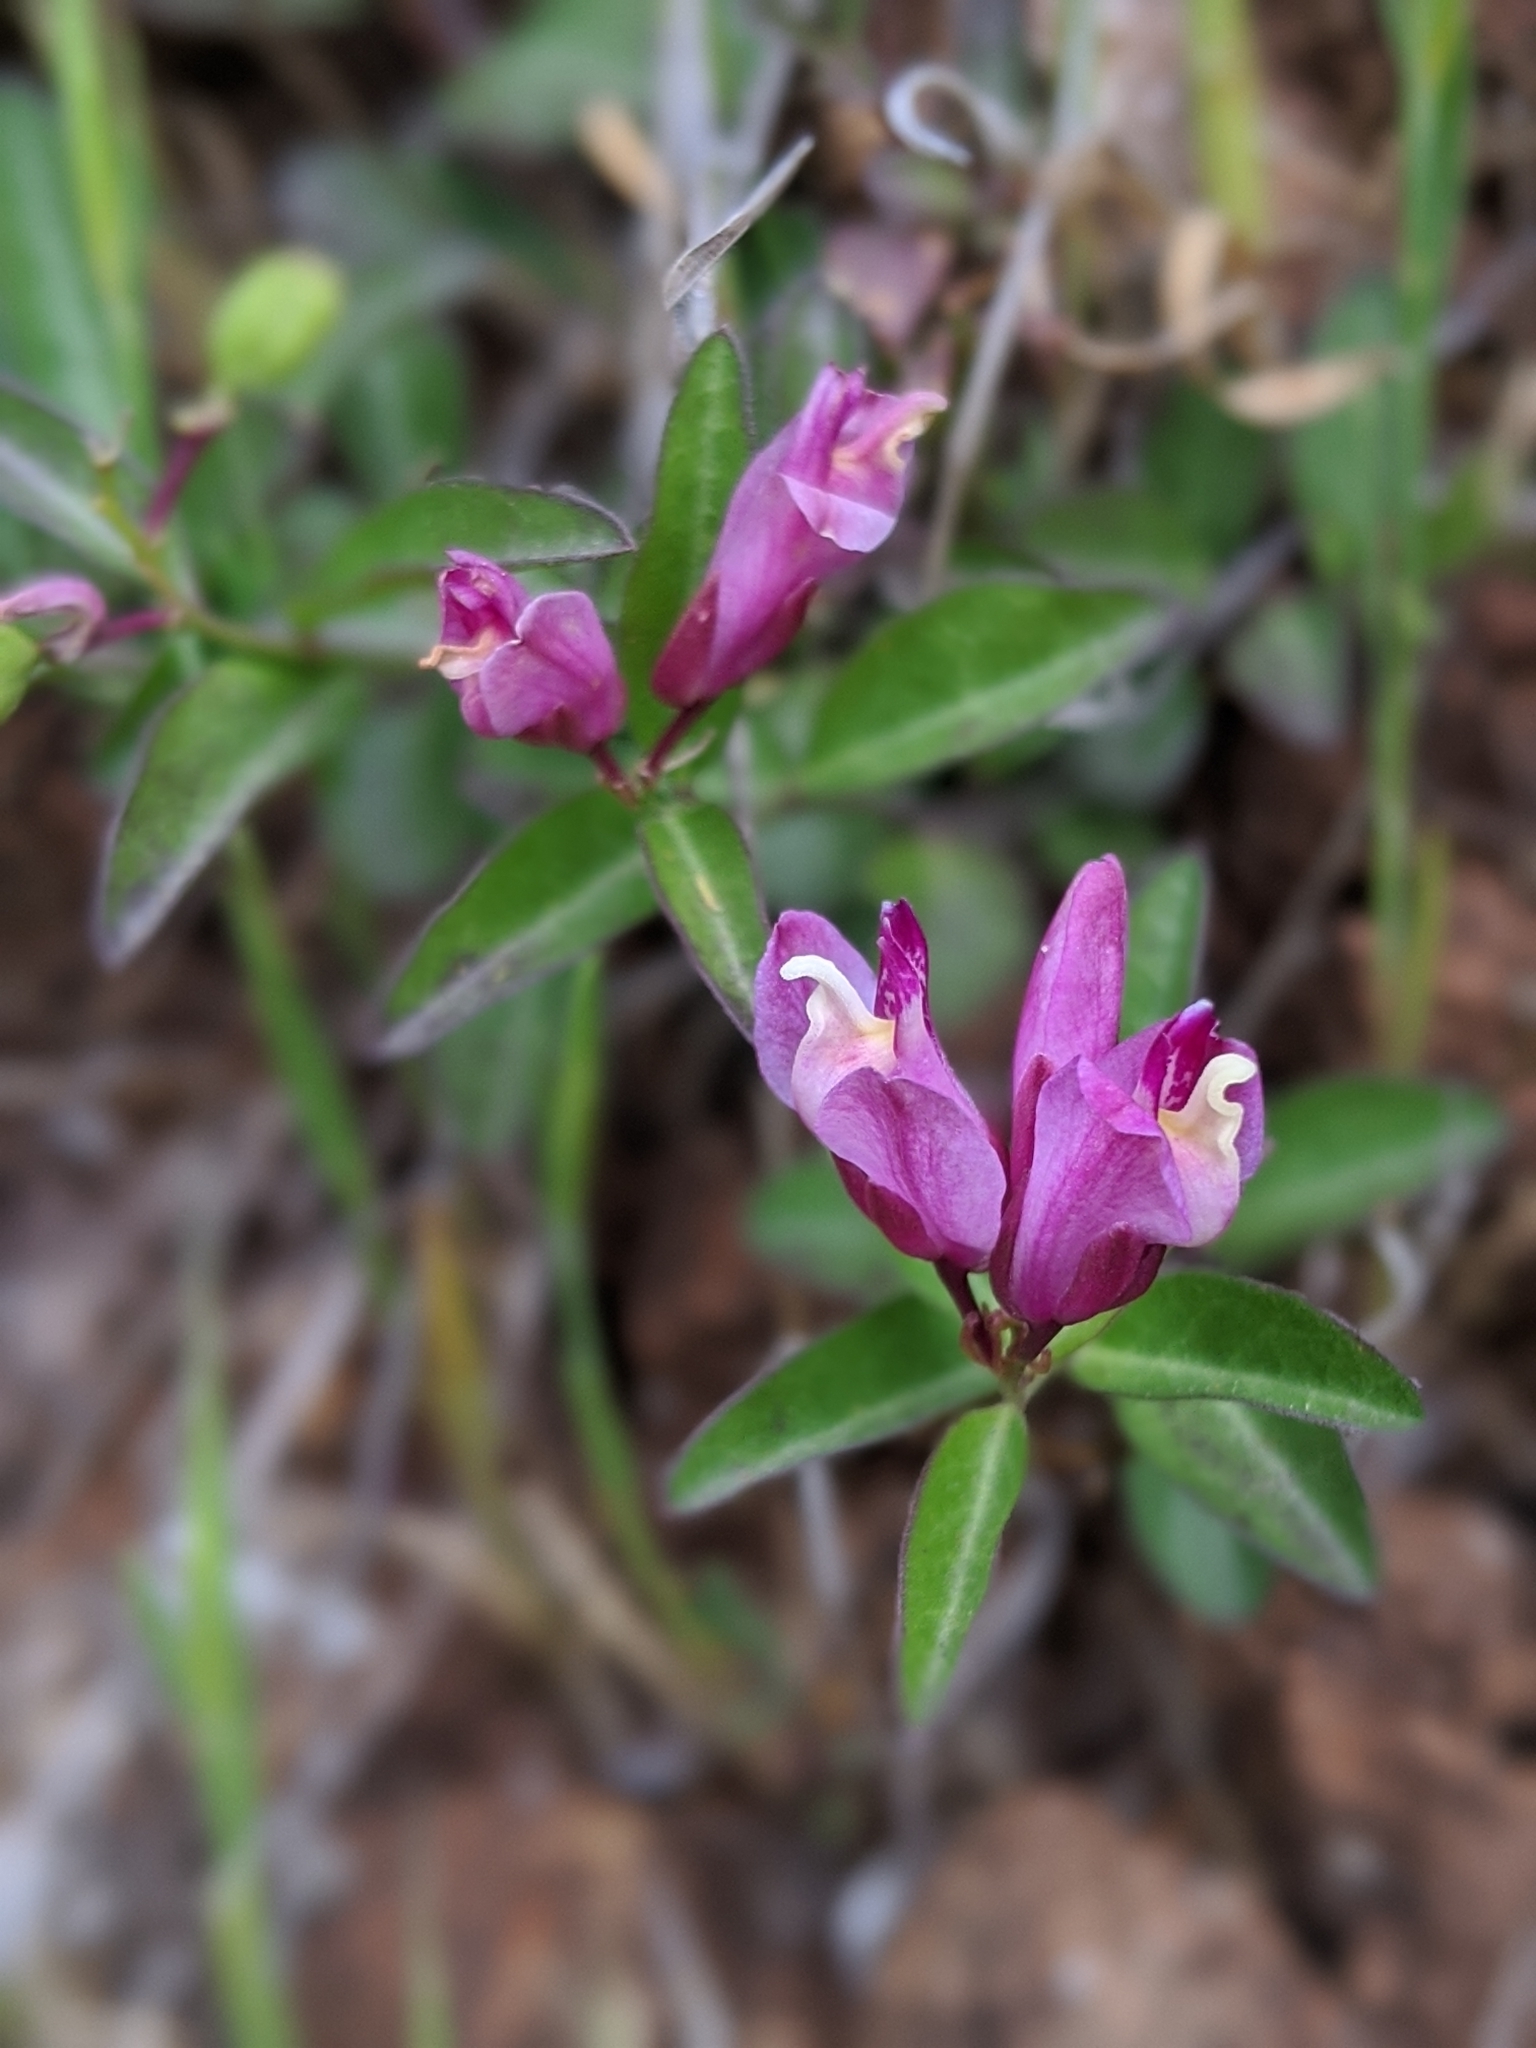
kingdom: Plantae
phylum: Tracheophyta
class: Magnoliopsida
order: Fabales
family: Polygalaceae
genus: Rhinotropis
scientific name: Rhinotropis californica
